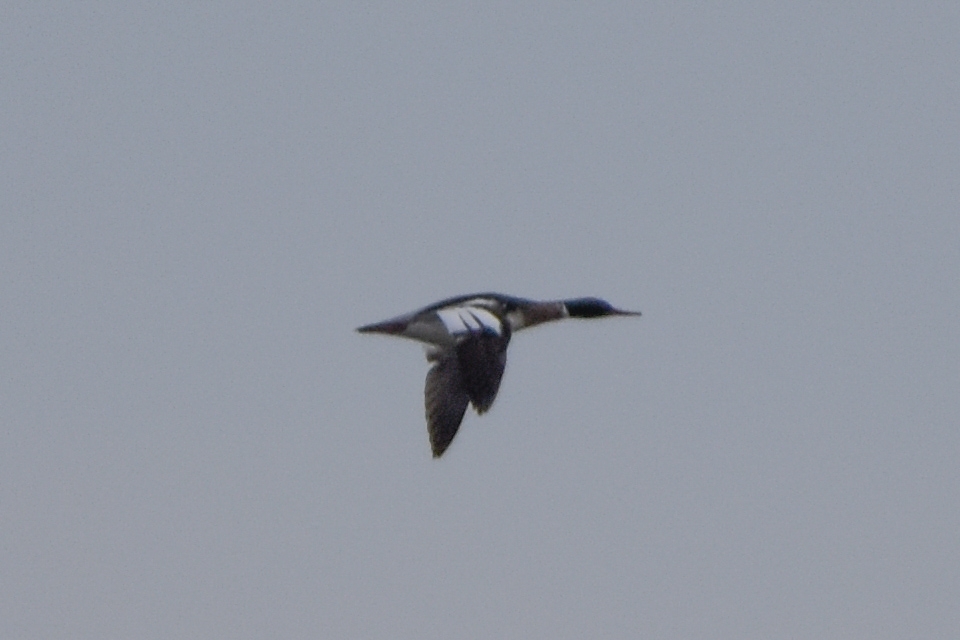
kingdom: Animalia
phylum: Chordata
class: Aves
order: Anseriformes
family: Anatidae
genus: Mergus
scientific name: Mergus serrator
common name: Red-breasted merganser
